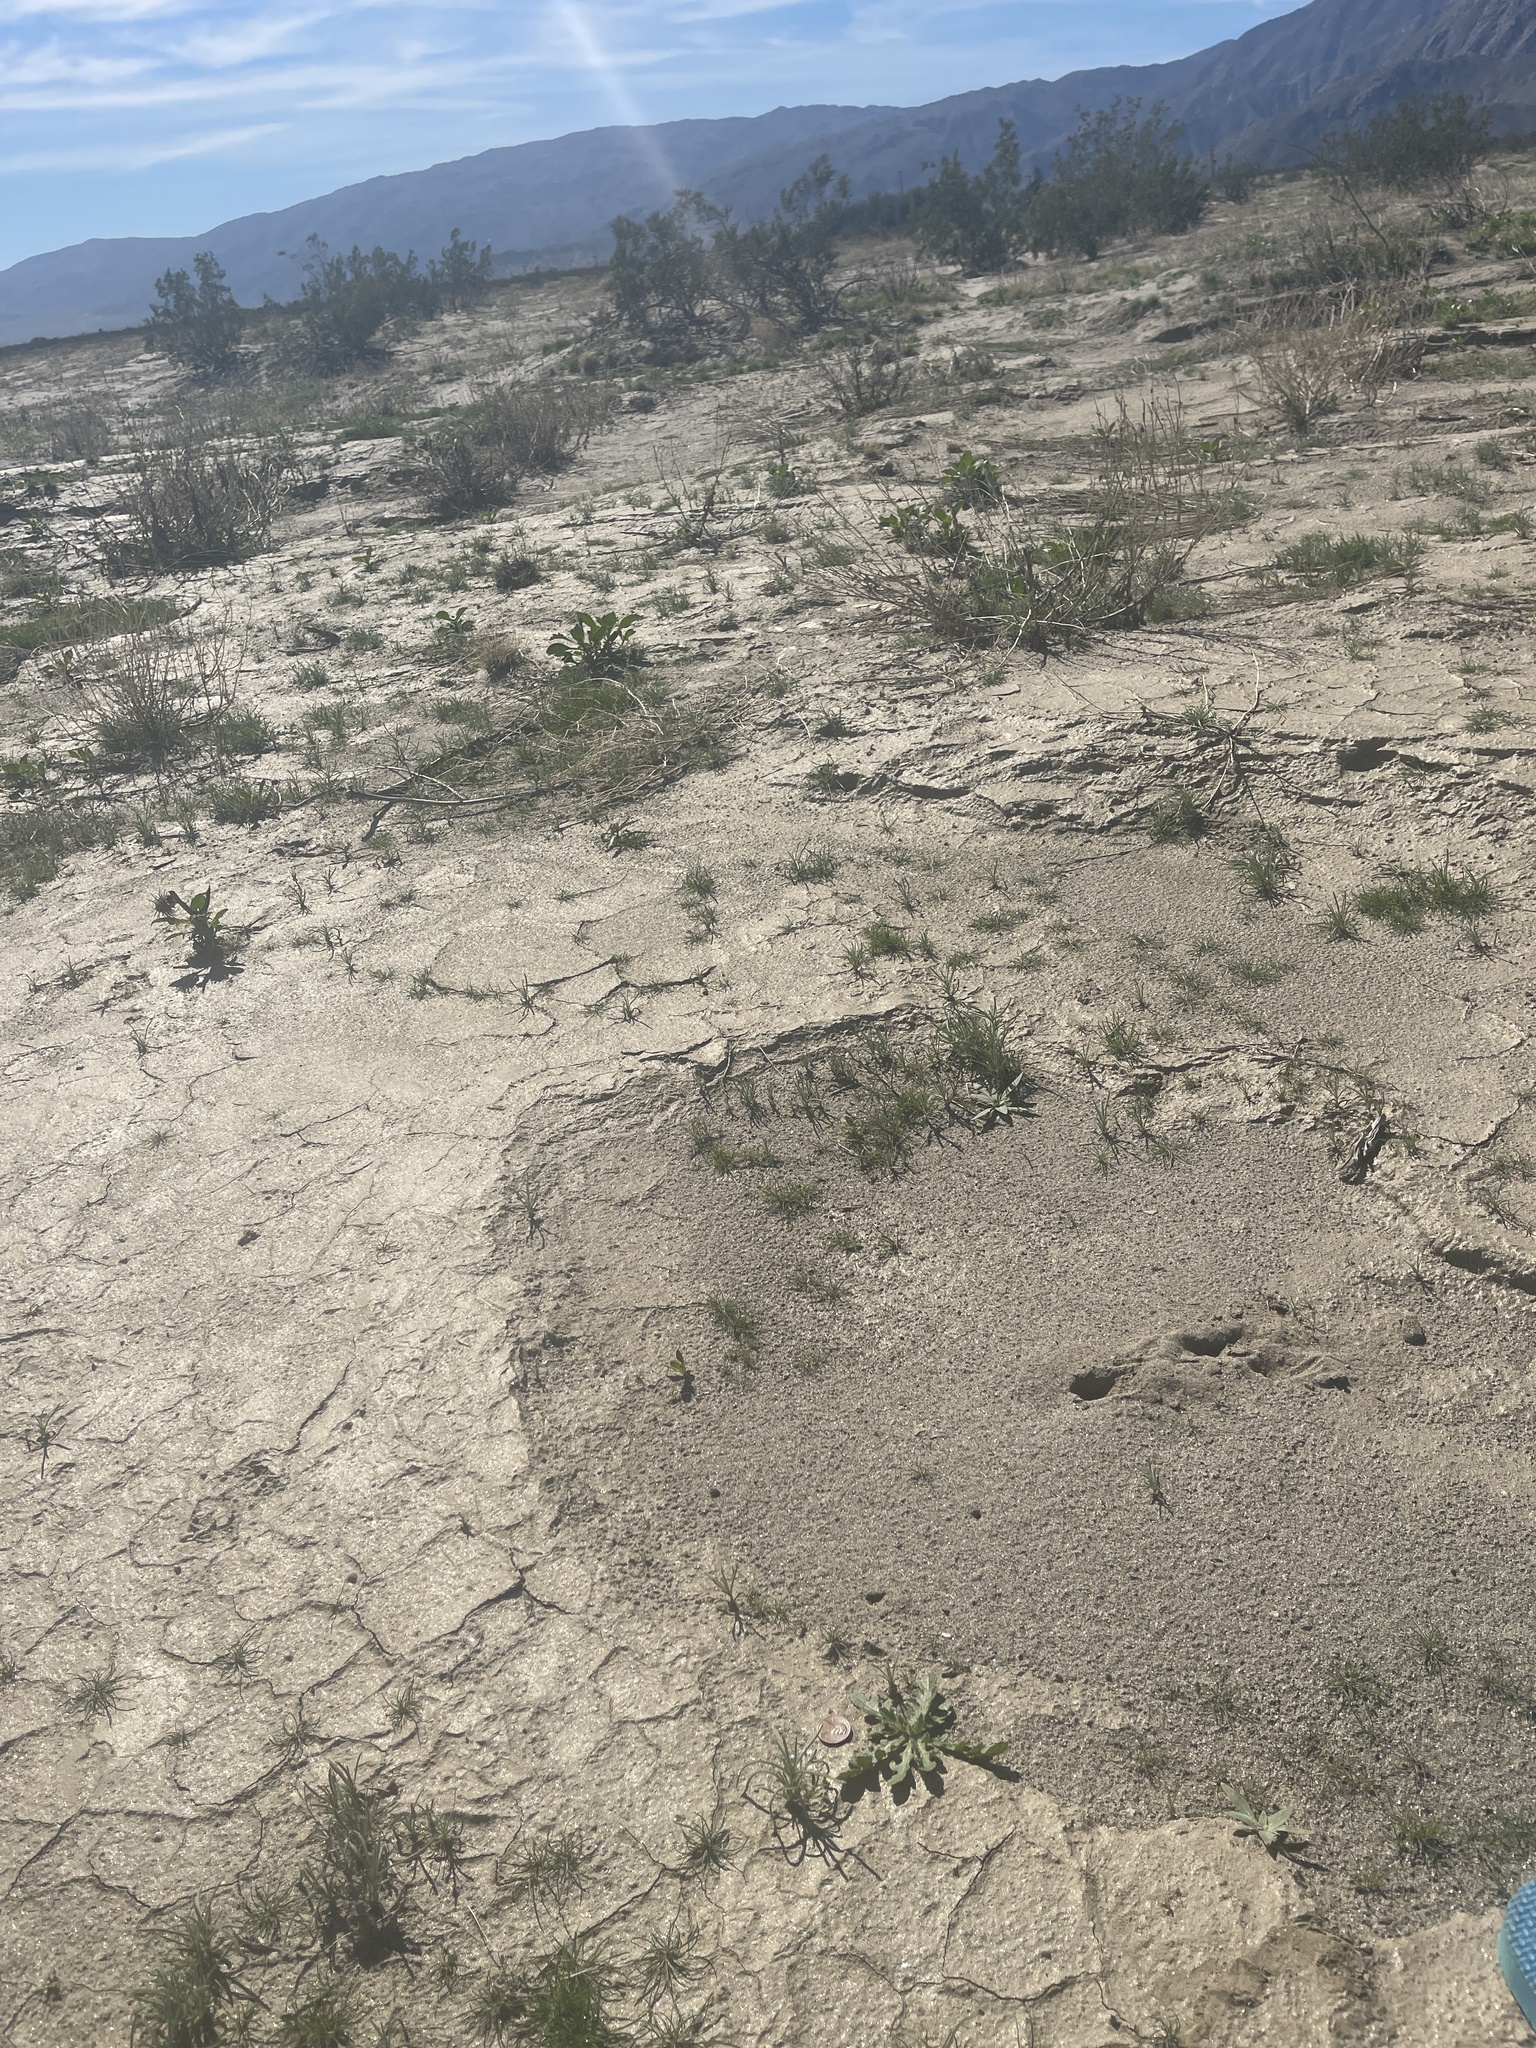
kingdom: Plantae
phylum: Tracheophyta
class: Magnoliopsida
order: Asterales
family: Asteraceae
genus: Volutaria
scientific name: Volutaria tubuliflora
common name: Desert knapweed
